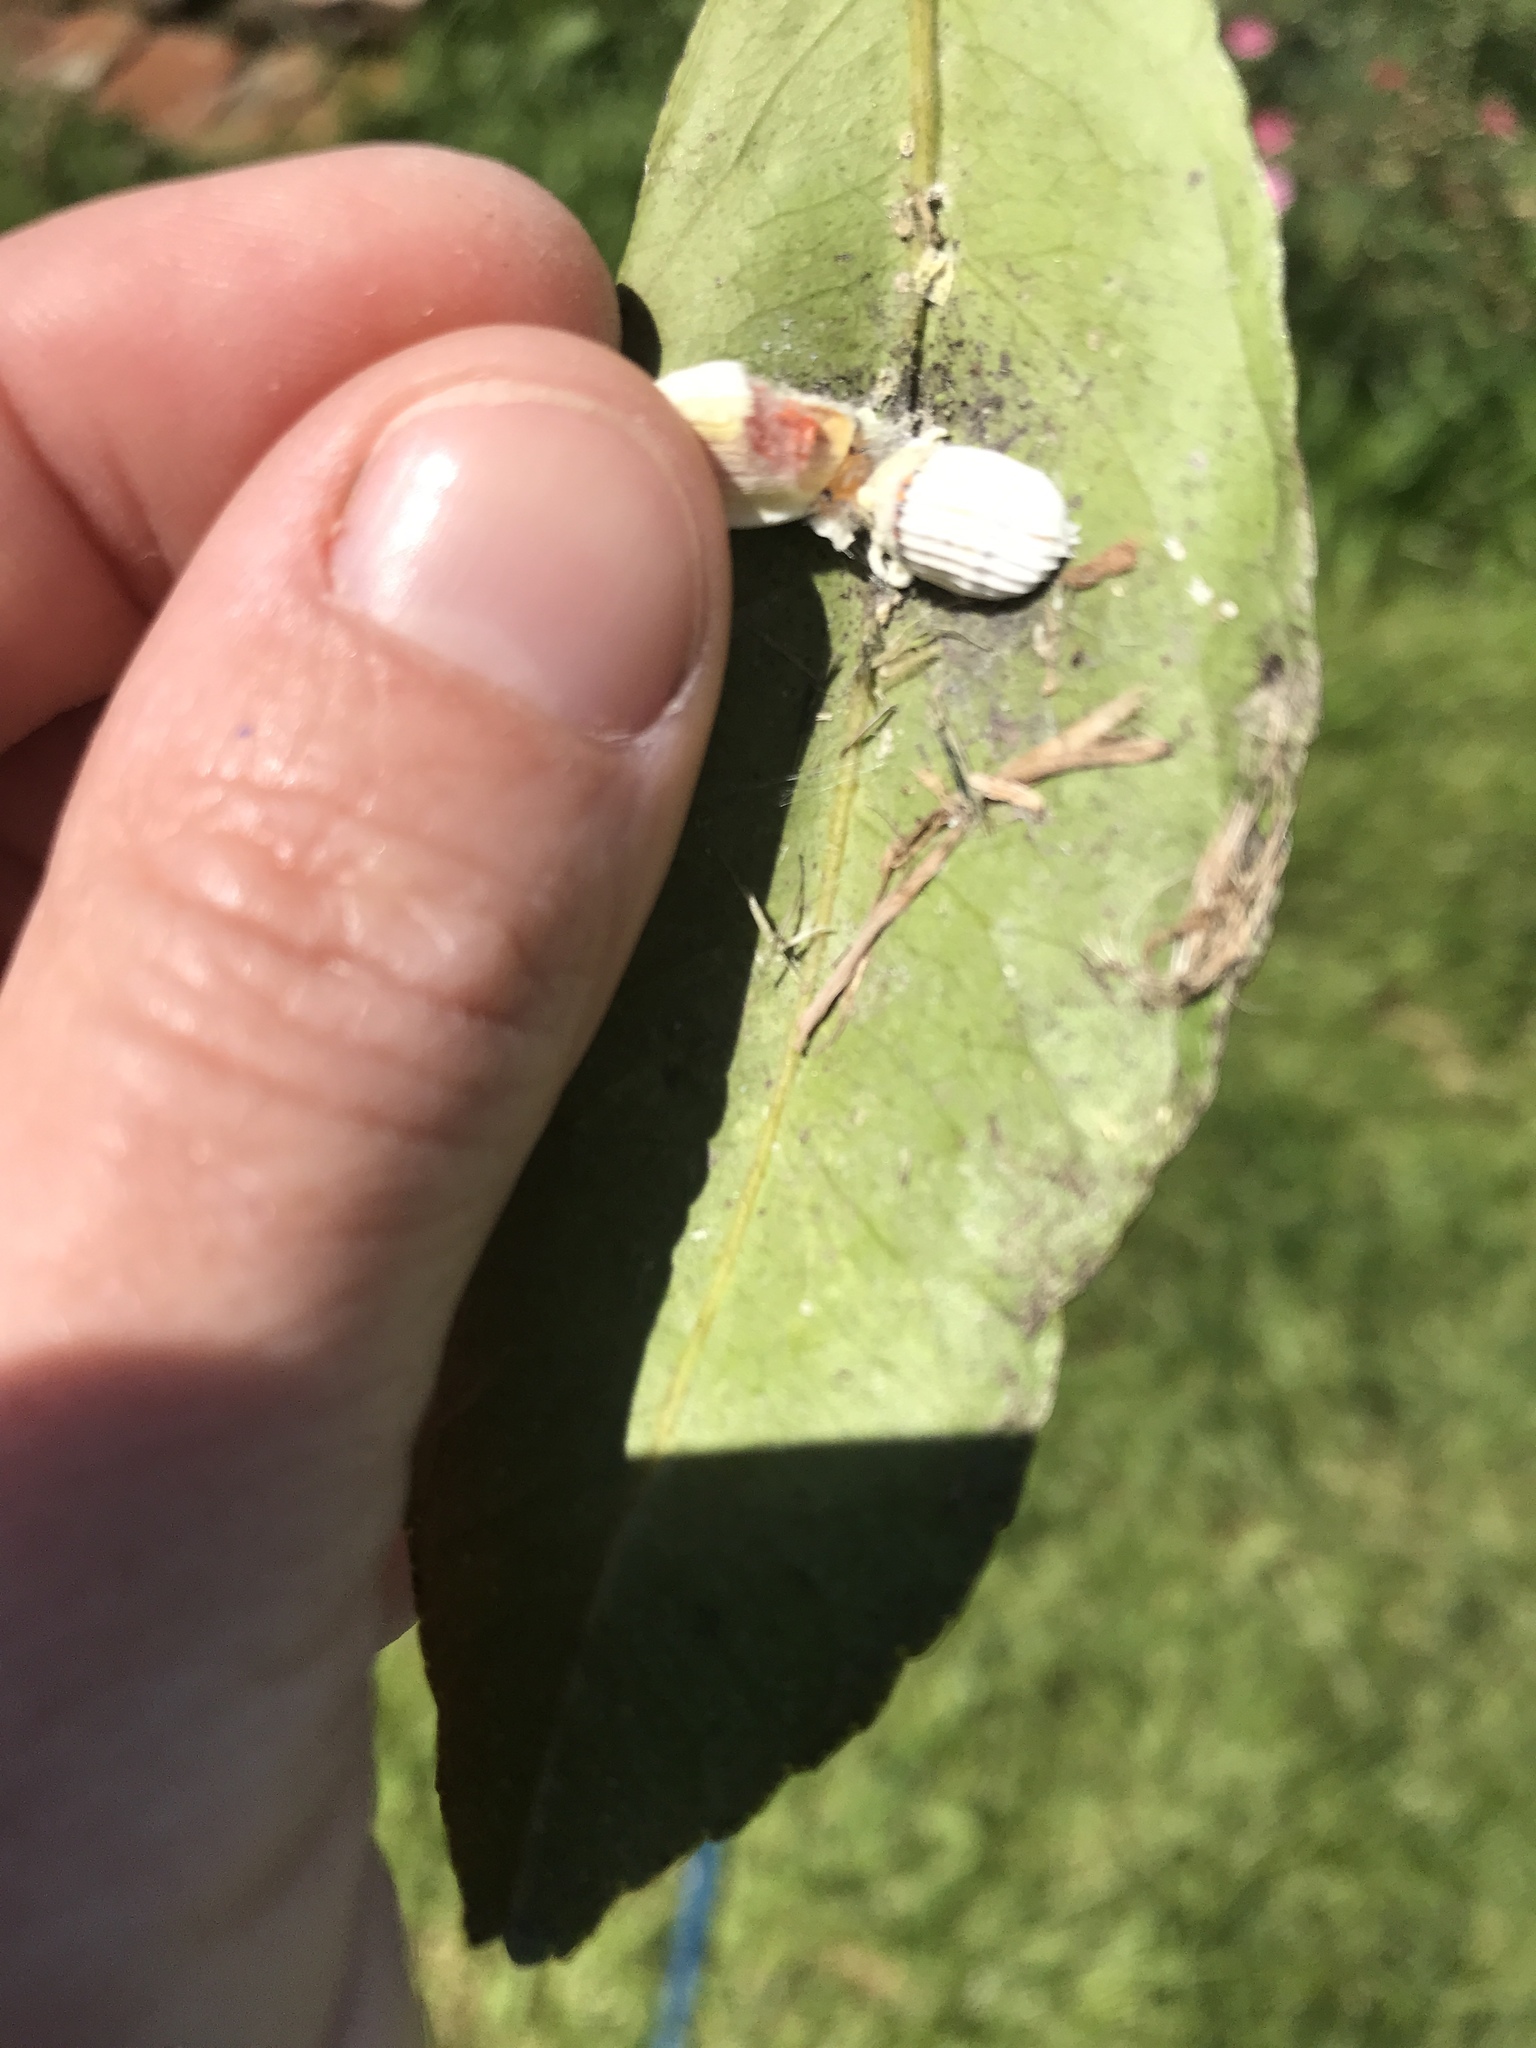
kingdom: Animalia
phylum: Arthropoda
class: Insecta
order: Hemiptera
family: Margarodidae
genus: Icerya
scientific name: Icerya purchasi
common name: Cottony cushion scale
